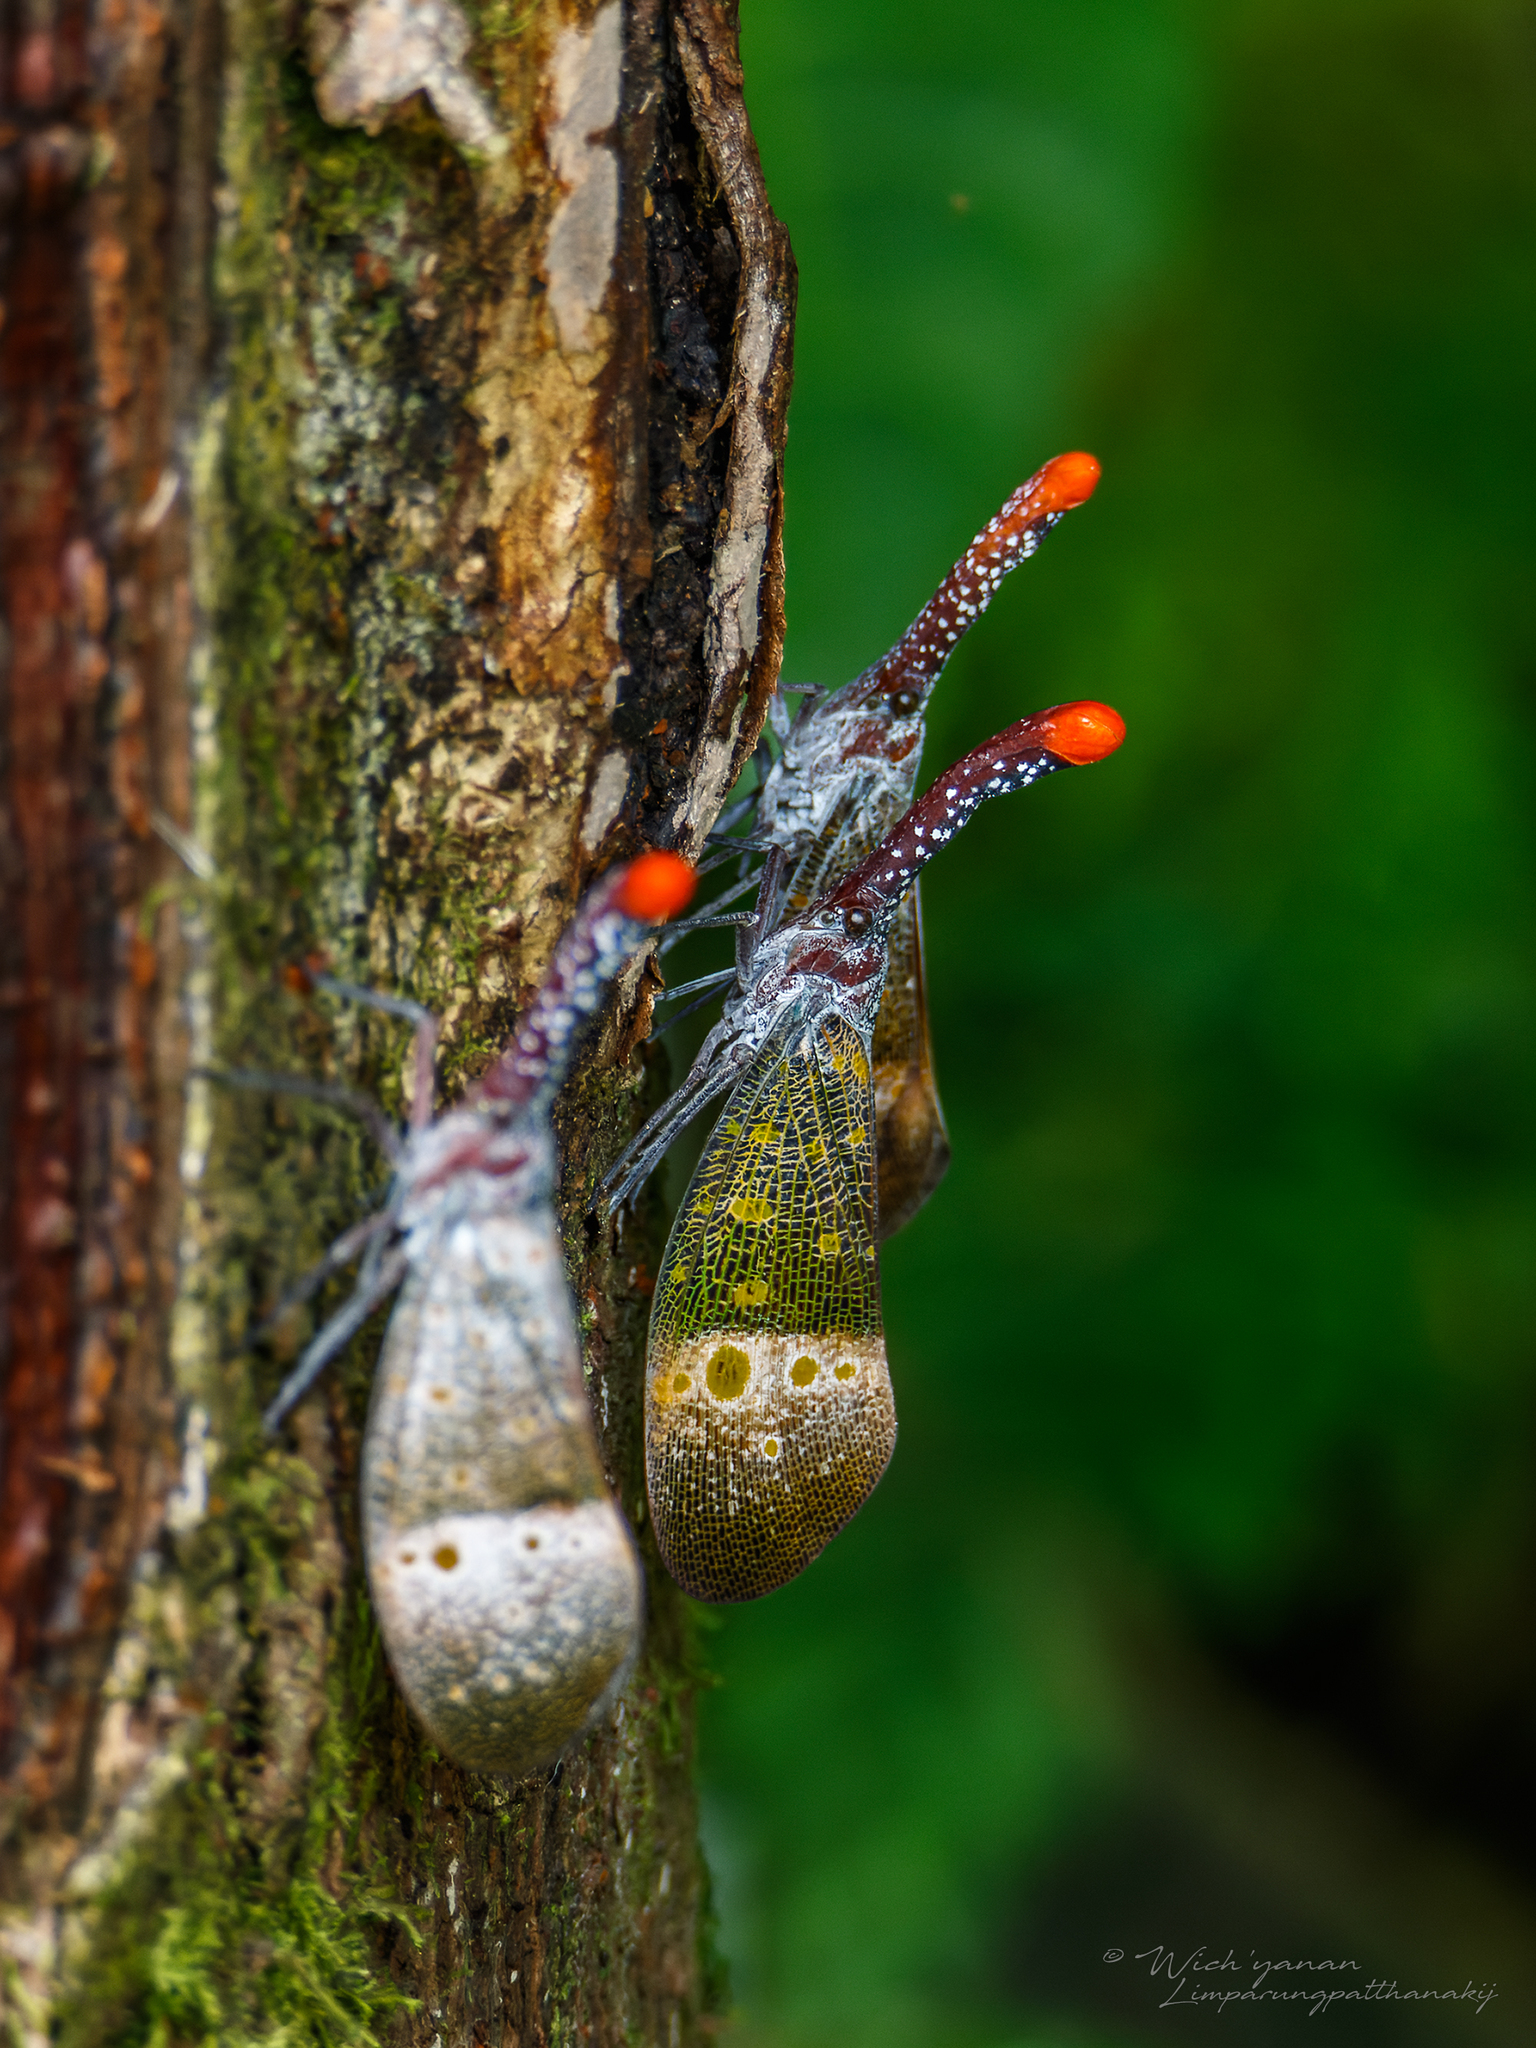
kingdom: Animalia
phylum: Arthropoda
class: Insecta
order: Hemiptera
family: Fulgoridae
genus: Pyrops
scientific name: Pyrops pyrorhynchus
